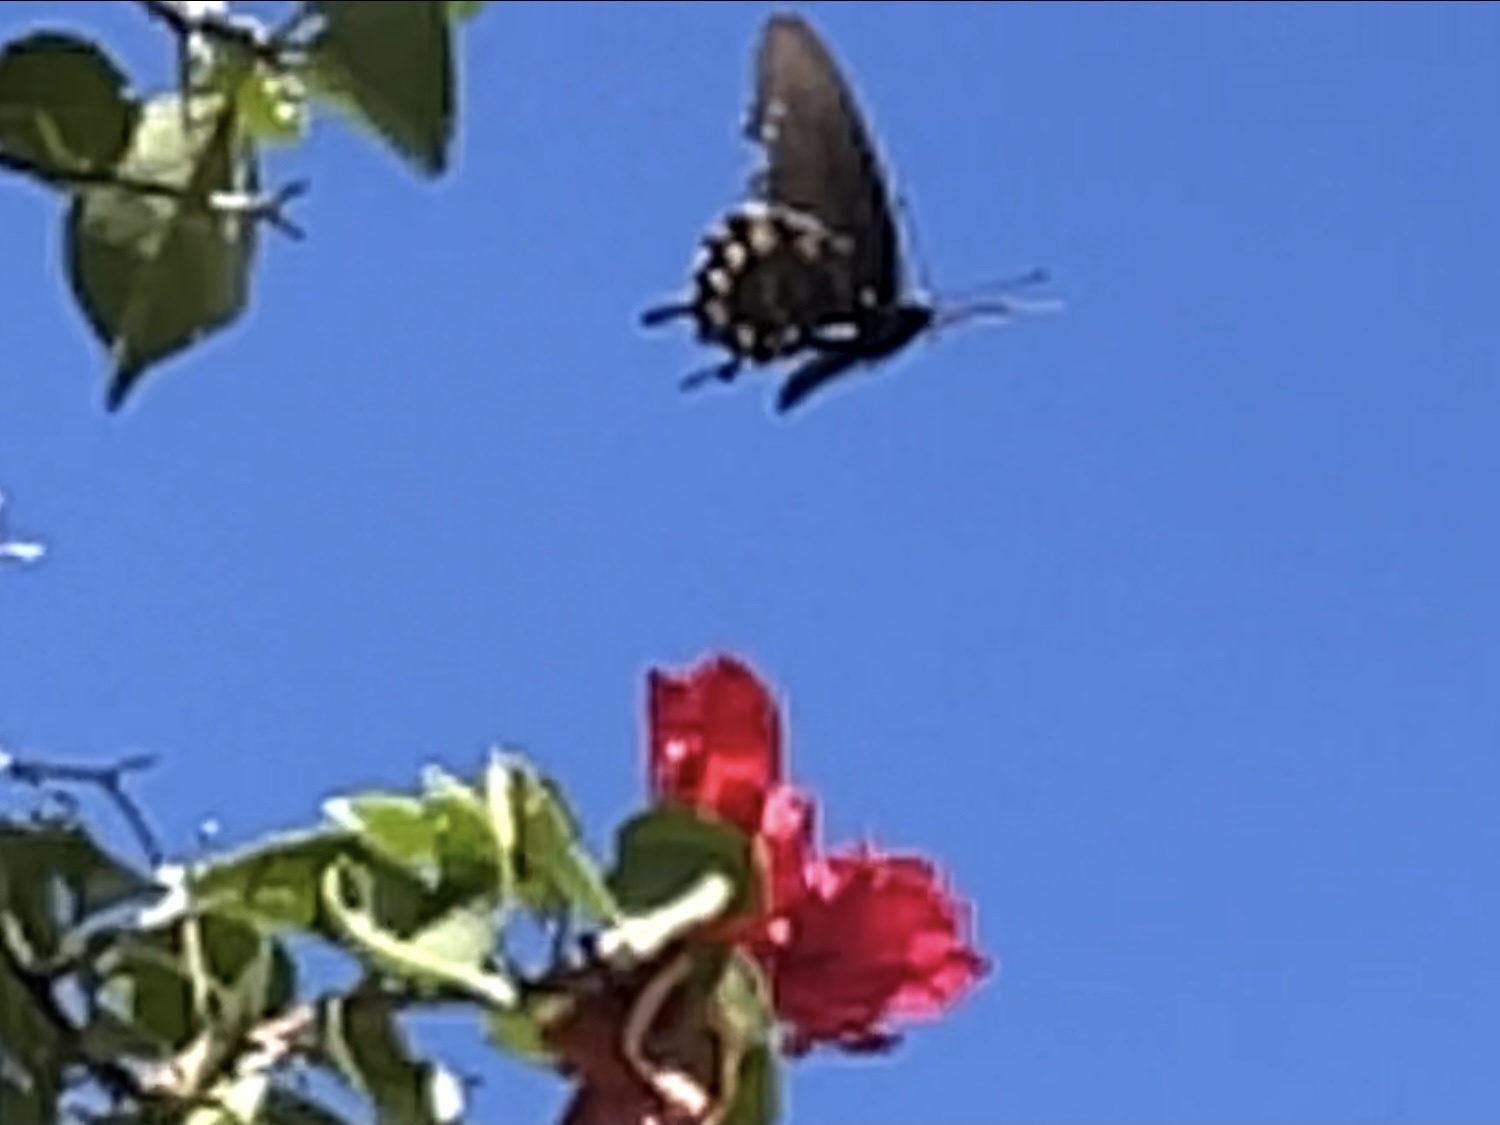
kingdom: Animalia
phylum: Arthropoda
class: Insecta
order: Lepidoptera
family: Papilionidae
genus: Battus
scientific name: Battus philenor
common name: Pipevine swallowtail
